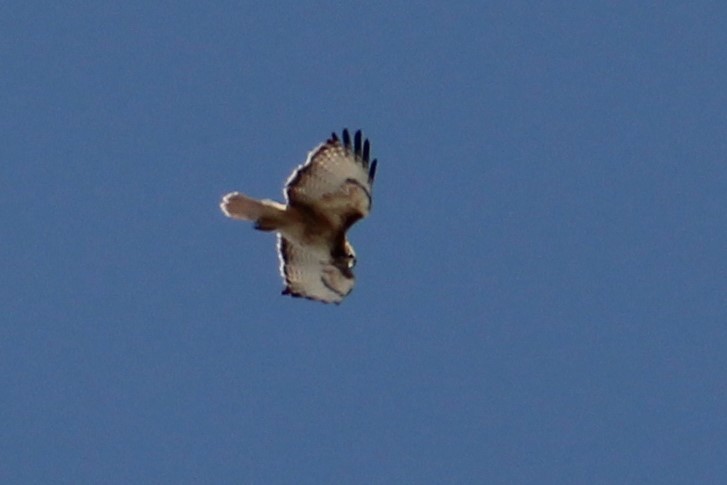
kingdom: Animalia
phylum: Chordata
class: Aves
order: Accipitriformes
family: Accipitridae
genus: Buteo
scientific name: Buteo jamaicensis
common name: Red-tailed hawk
